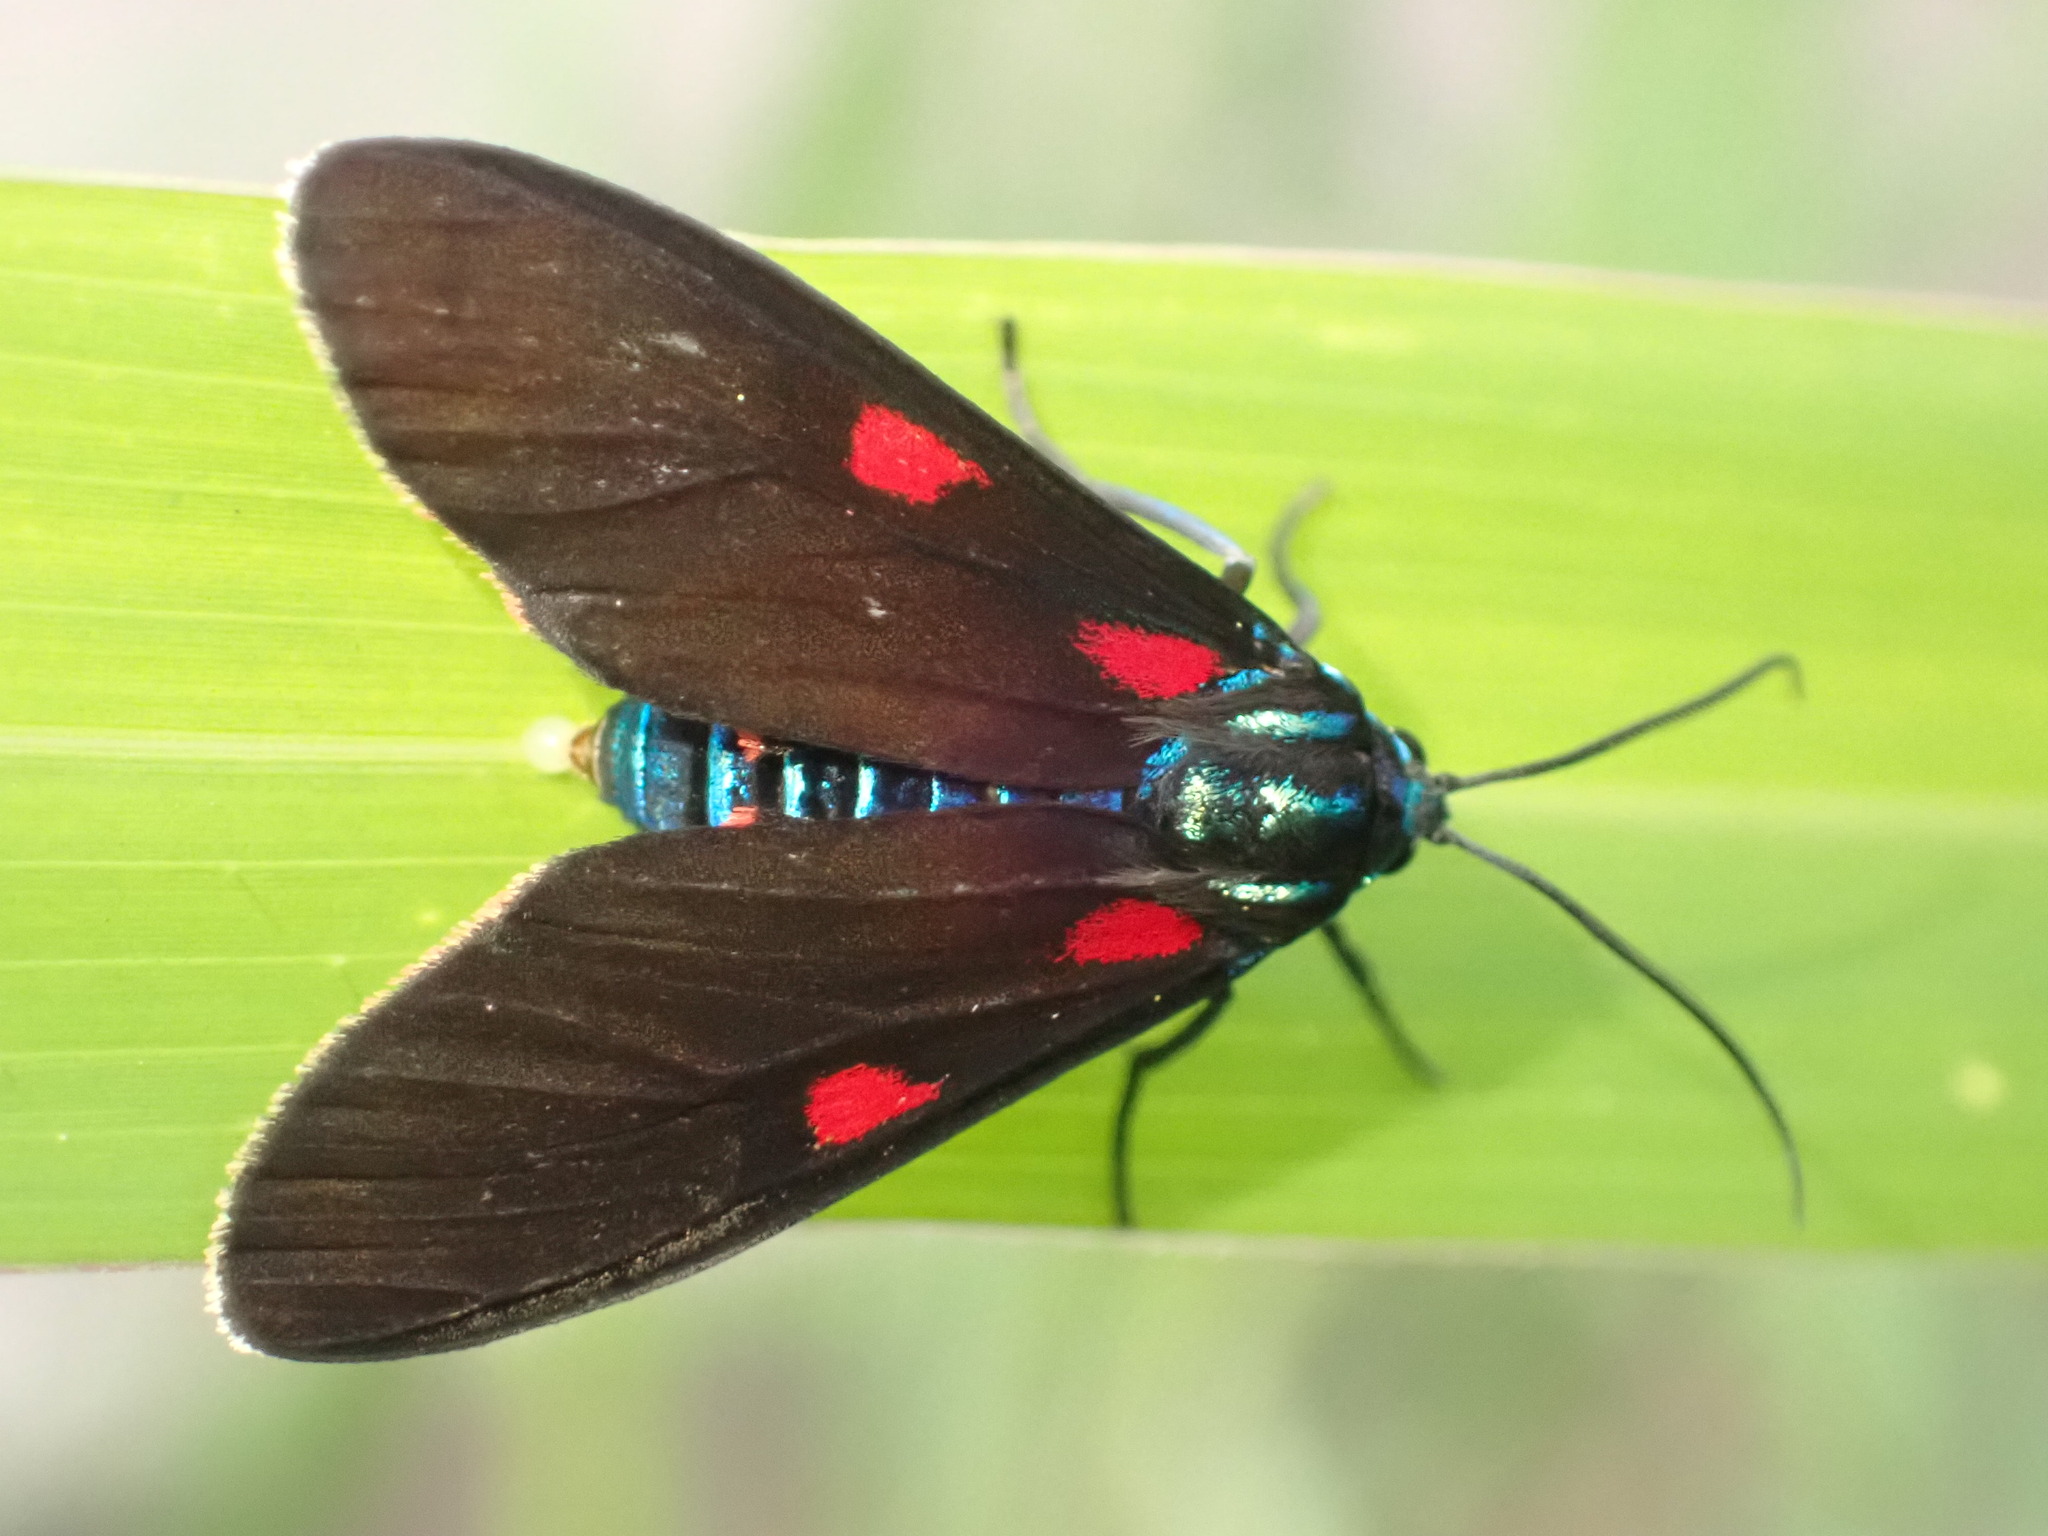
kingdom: Animalia
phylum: Arthropoda
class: Insecta
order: Lepidoptera
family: Erebidae
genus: Cyanopepla
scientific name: Cyanopepla fastuosa
